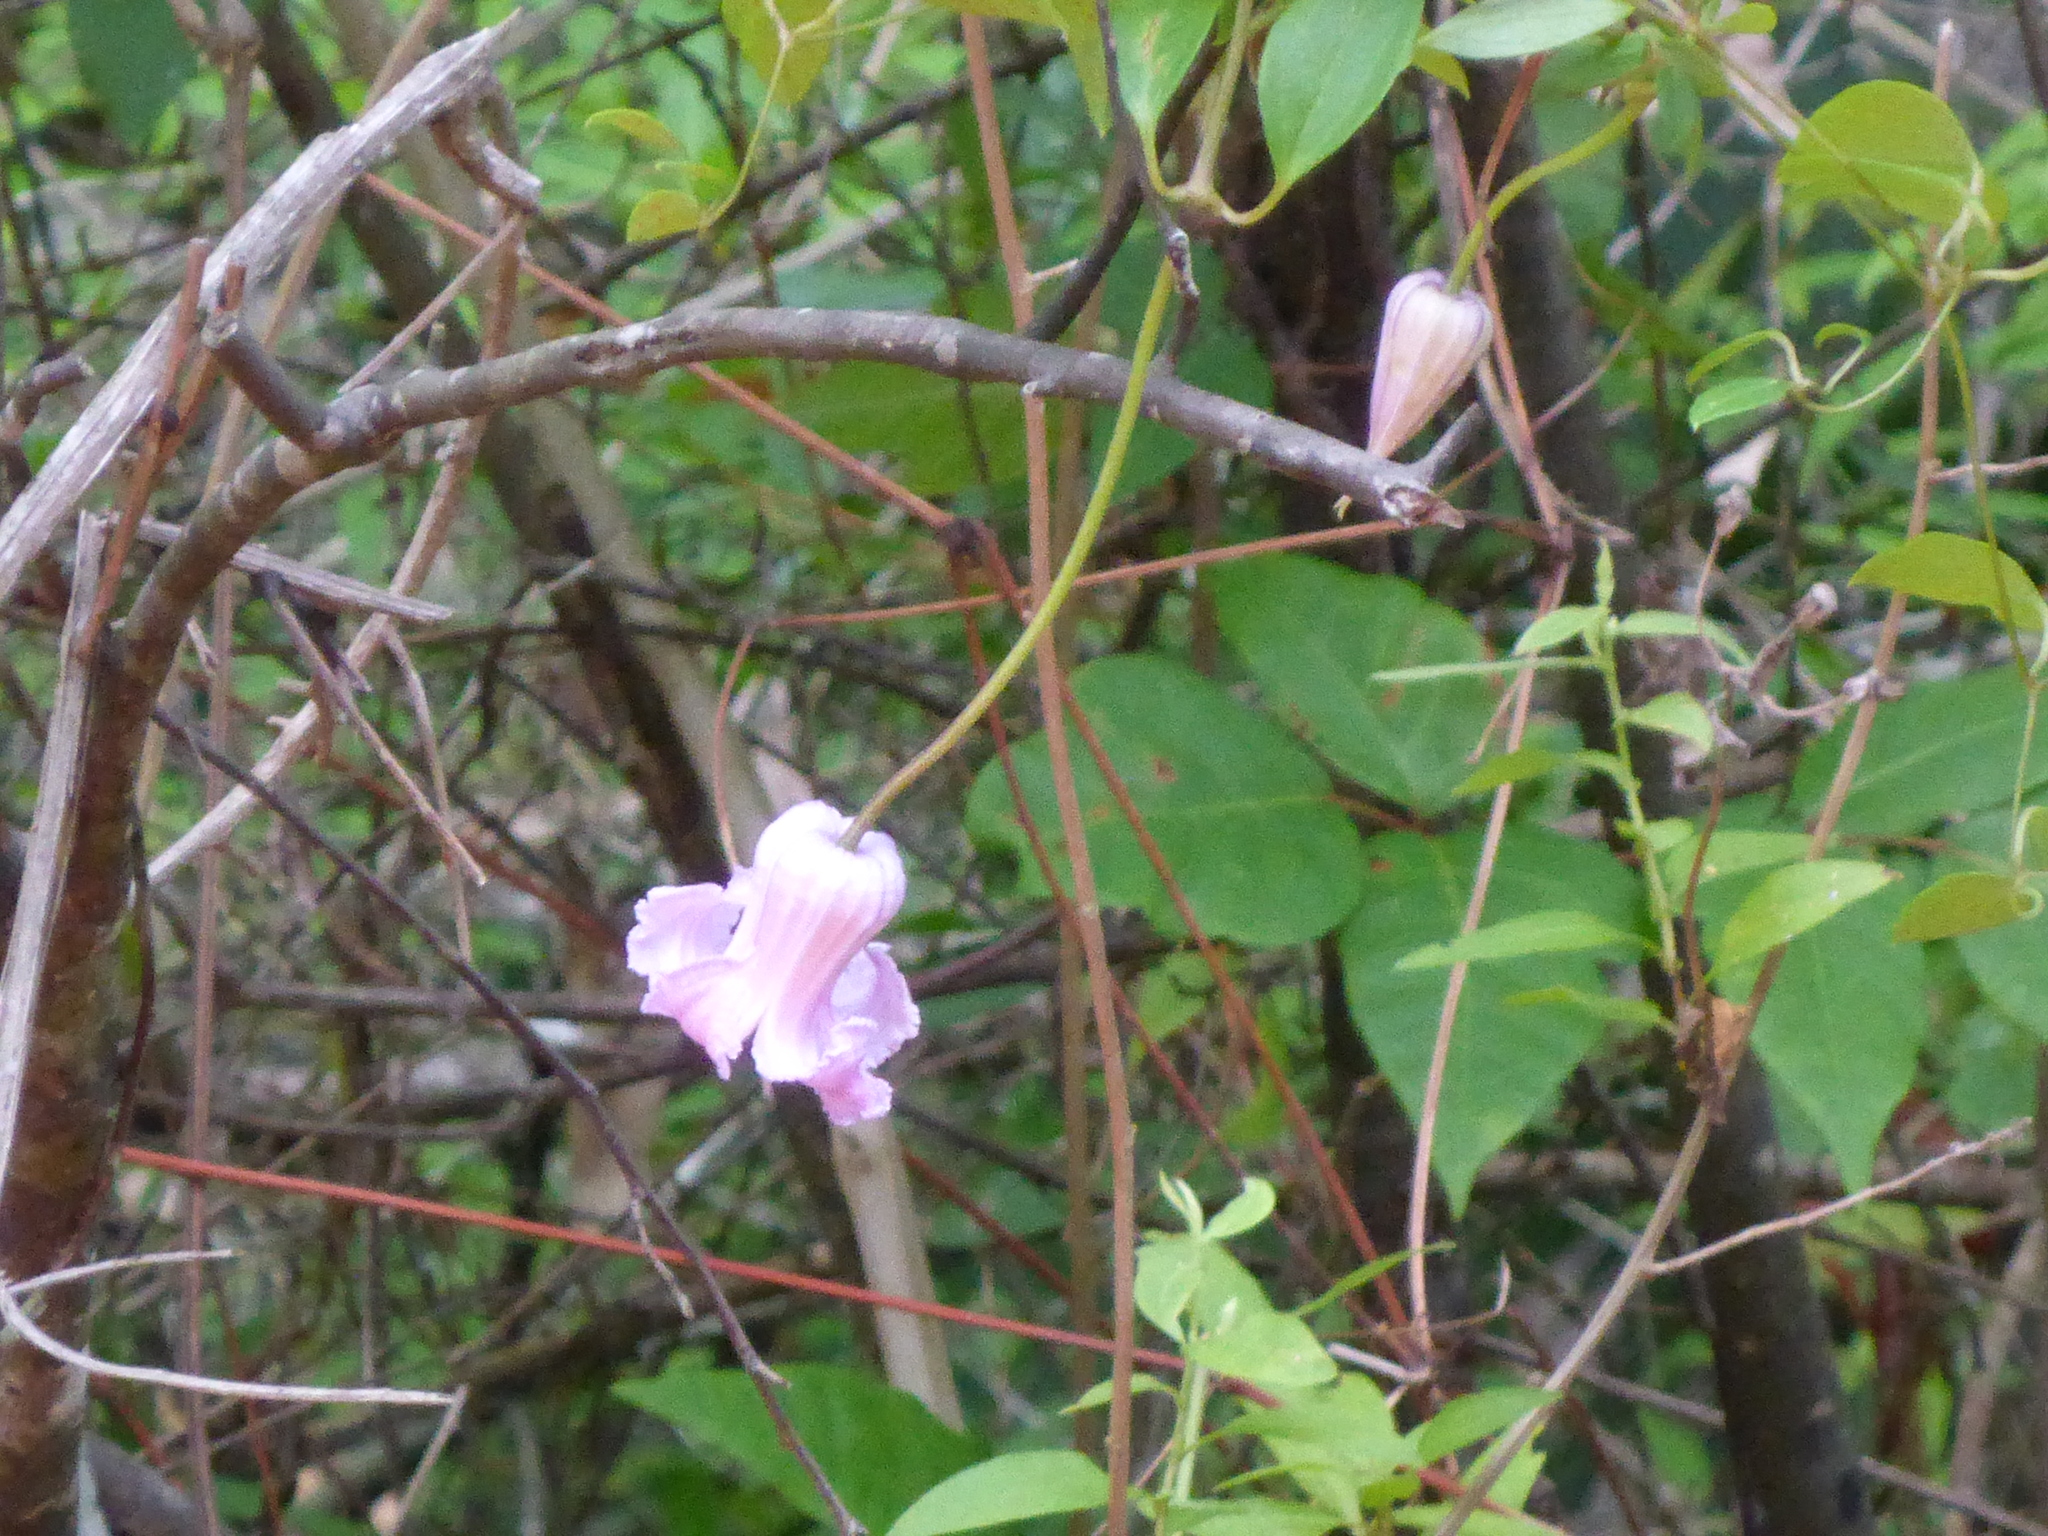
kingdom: Plantae
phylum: Tracheophyta
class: Magnoliopsida
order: Ranunculales
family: Ranunculaceae
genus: Clematis
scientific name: Clematis crispa
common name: Curly clematis
